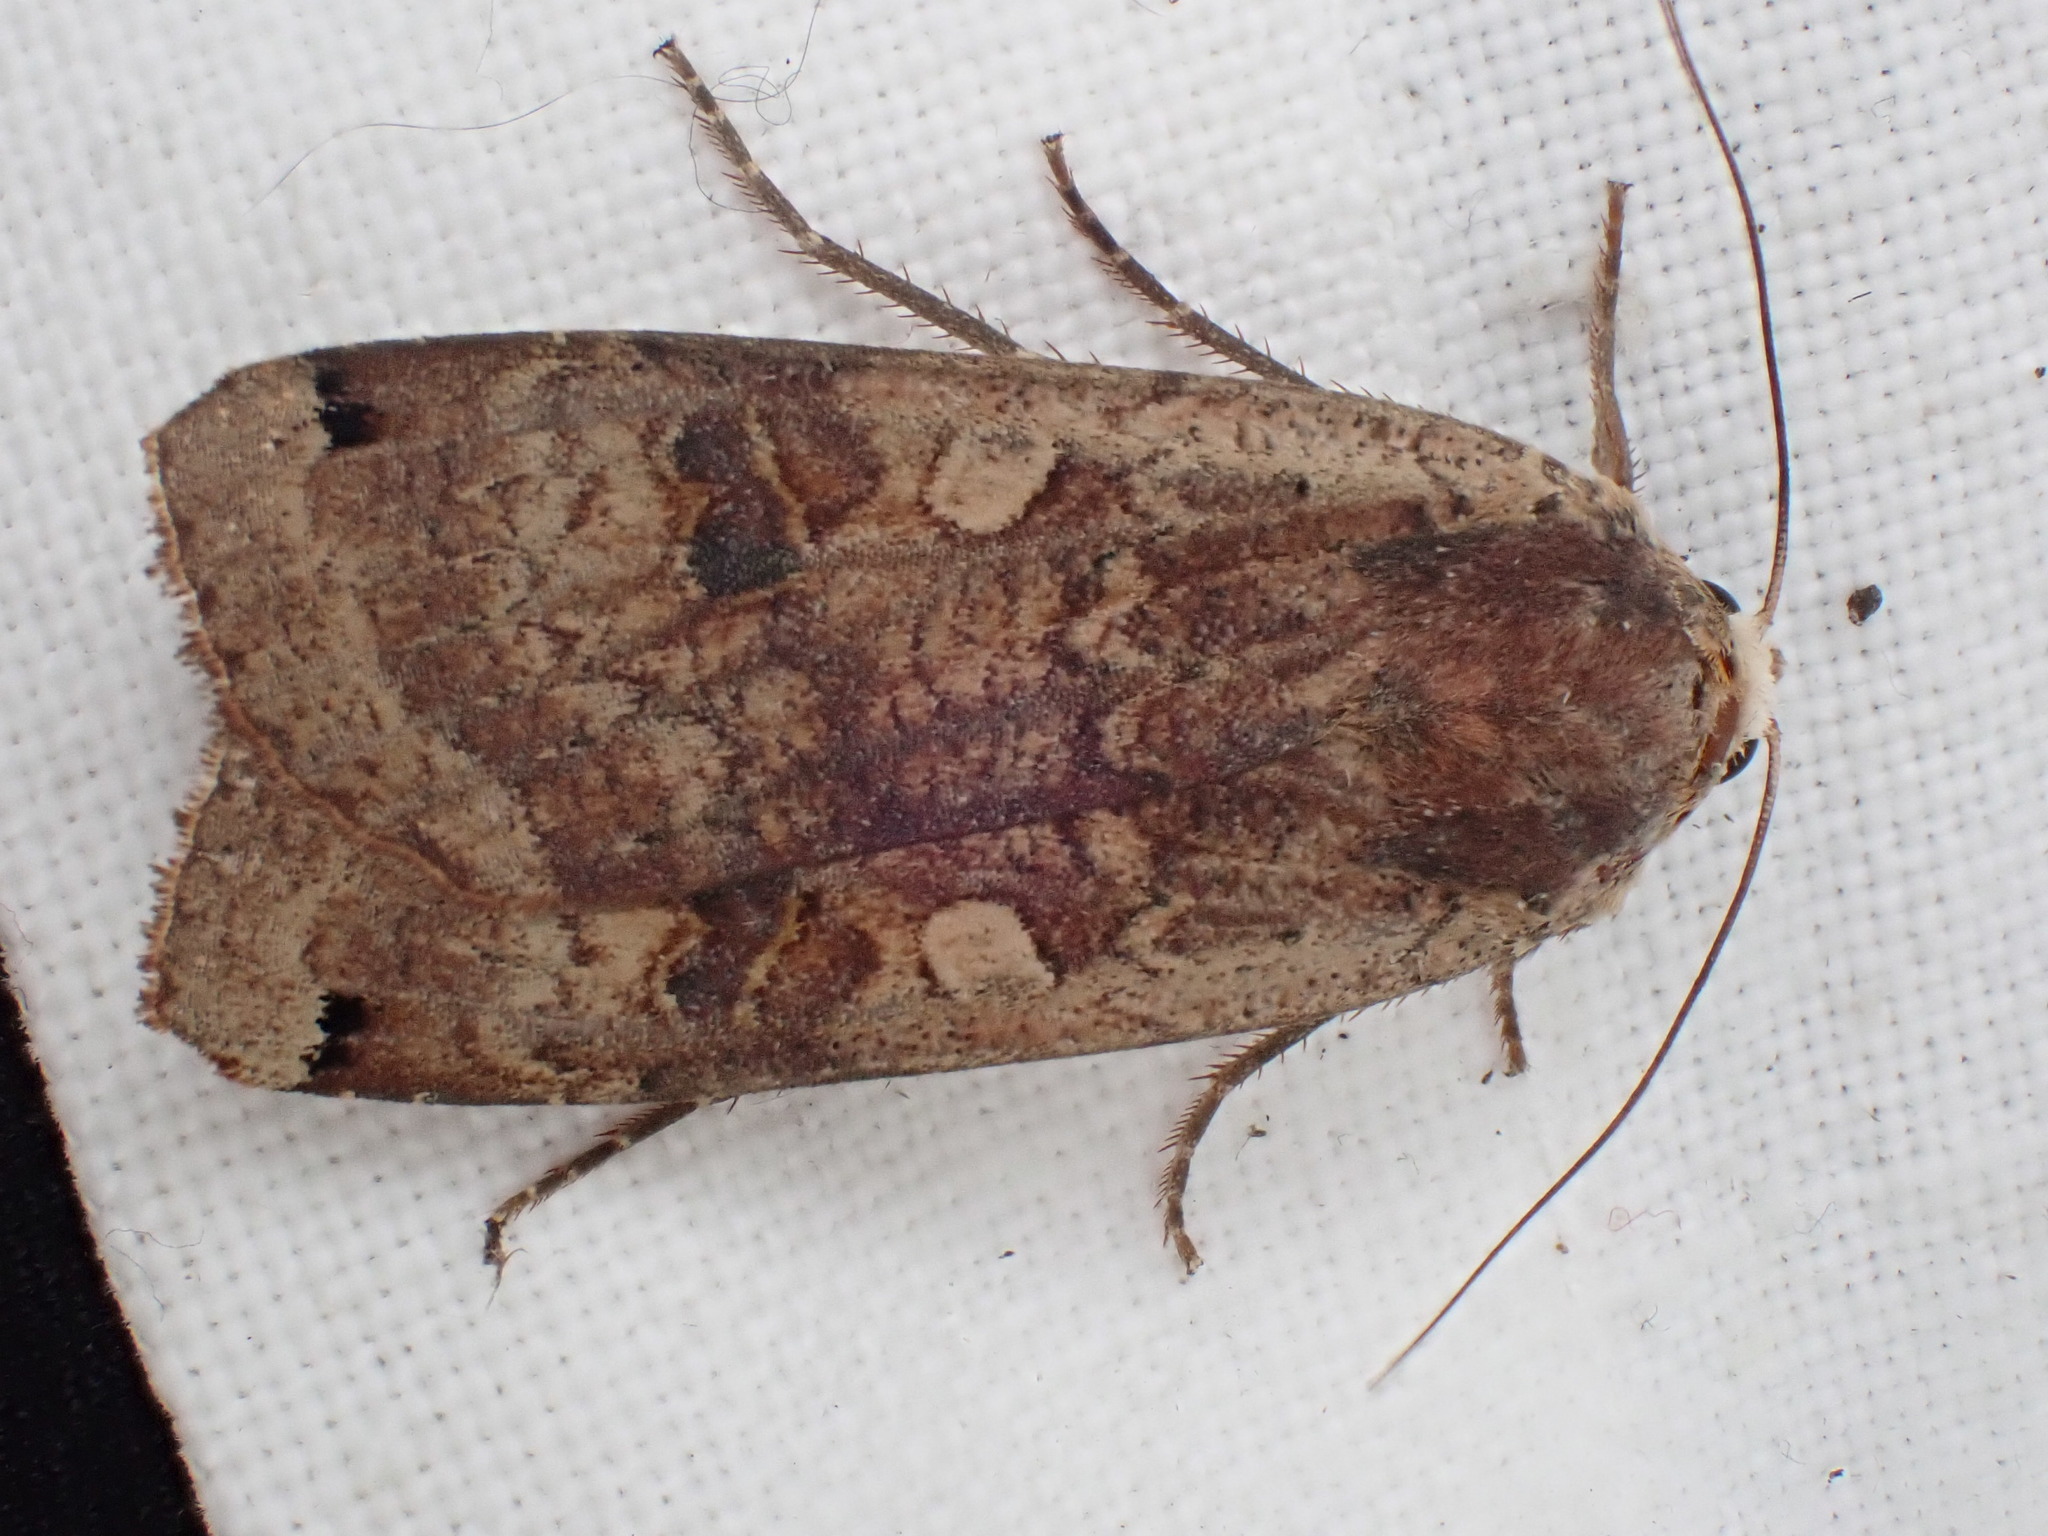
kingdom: Animalia
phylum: Arthropoda
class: Insecta
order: Lepidoptera
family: Noctuidae
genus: Noctua
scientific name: Noctua pronuba
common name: Large yellow underwing
